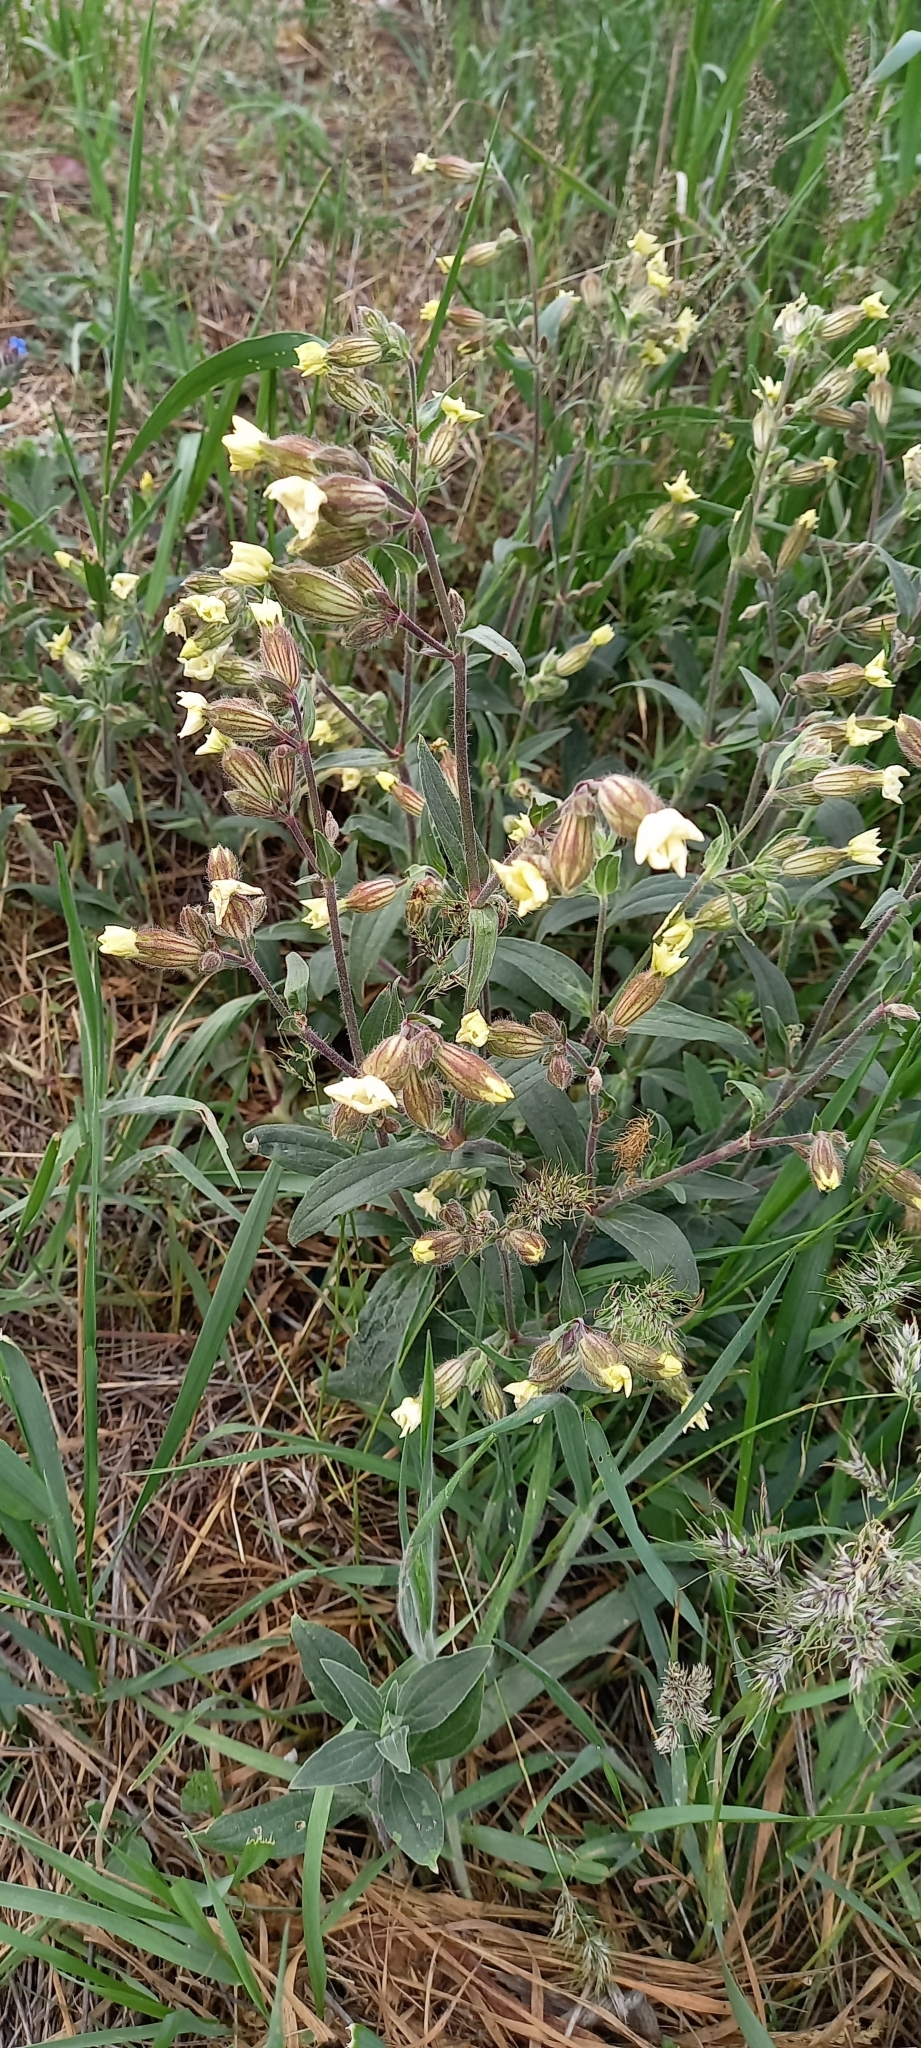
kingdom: Plantae
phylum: Tracheophyta
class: Magnoliopsida
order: Caryophyllales
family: Caryophyllaceae
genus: Silene
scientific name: Silene latifolia
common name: White campion
